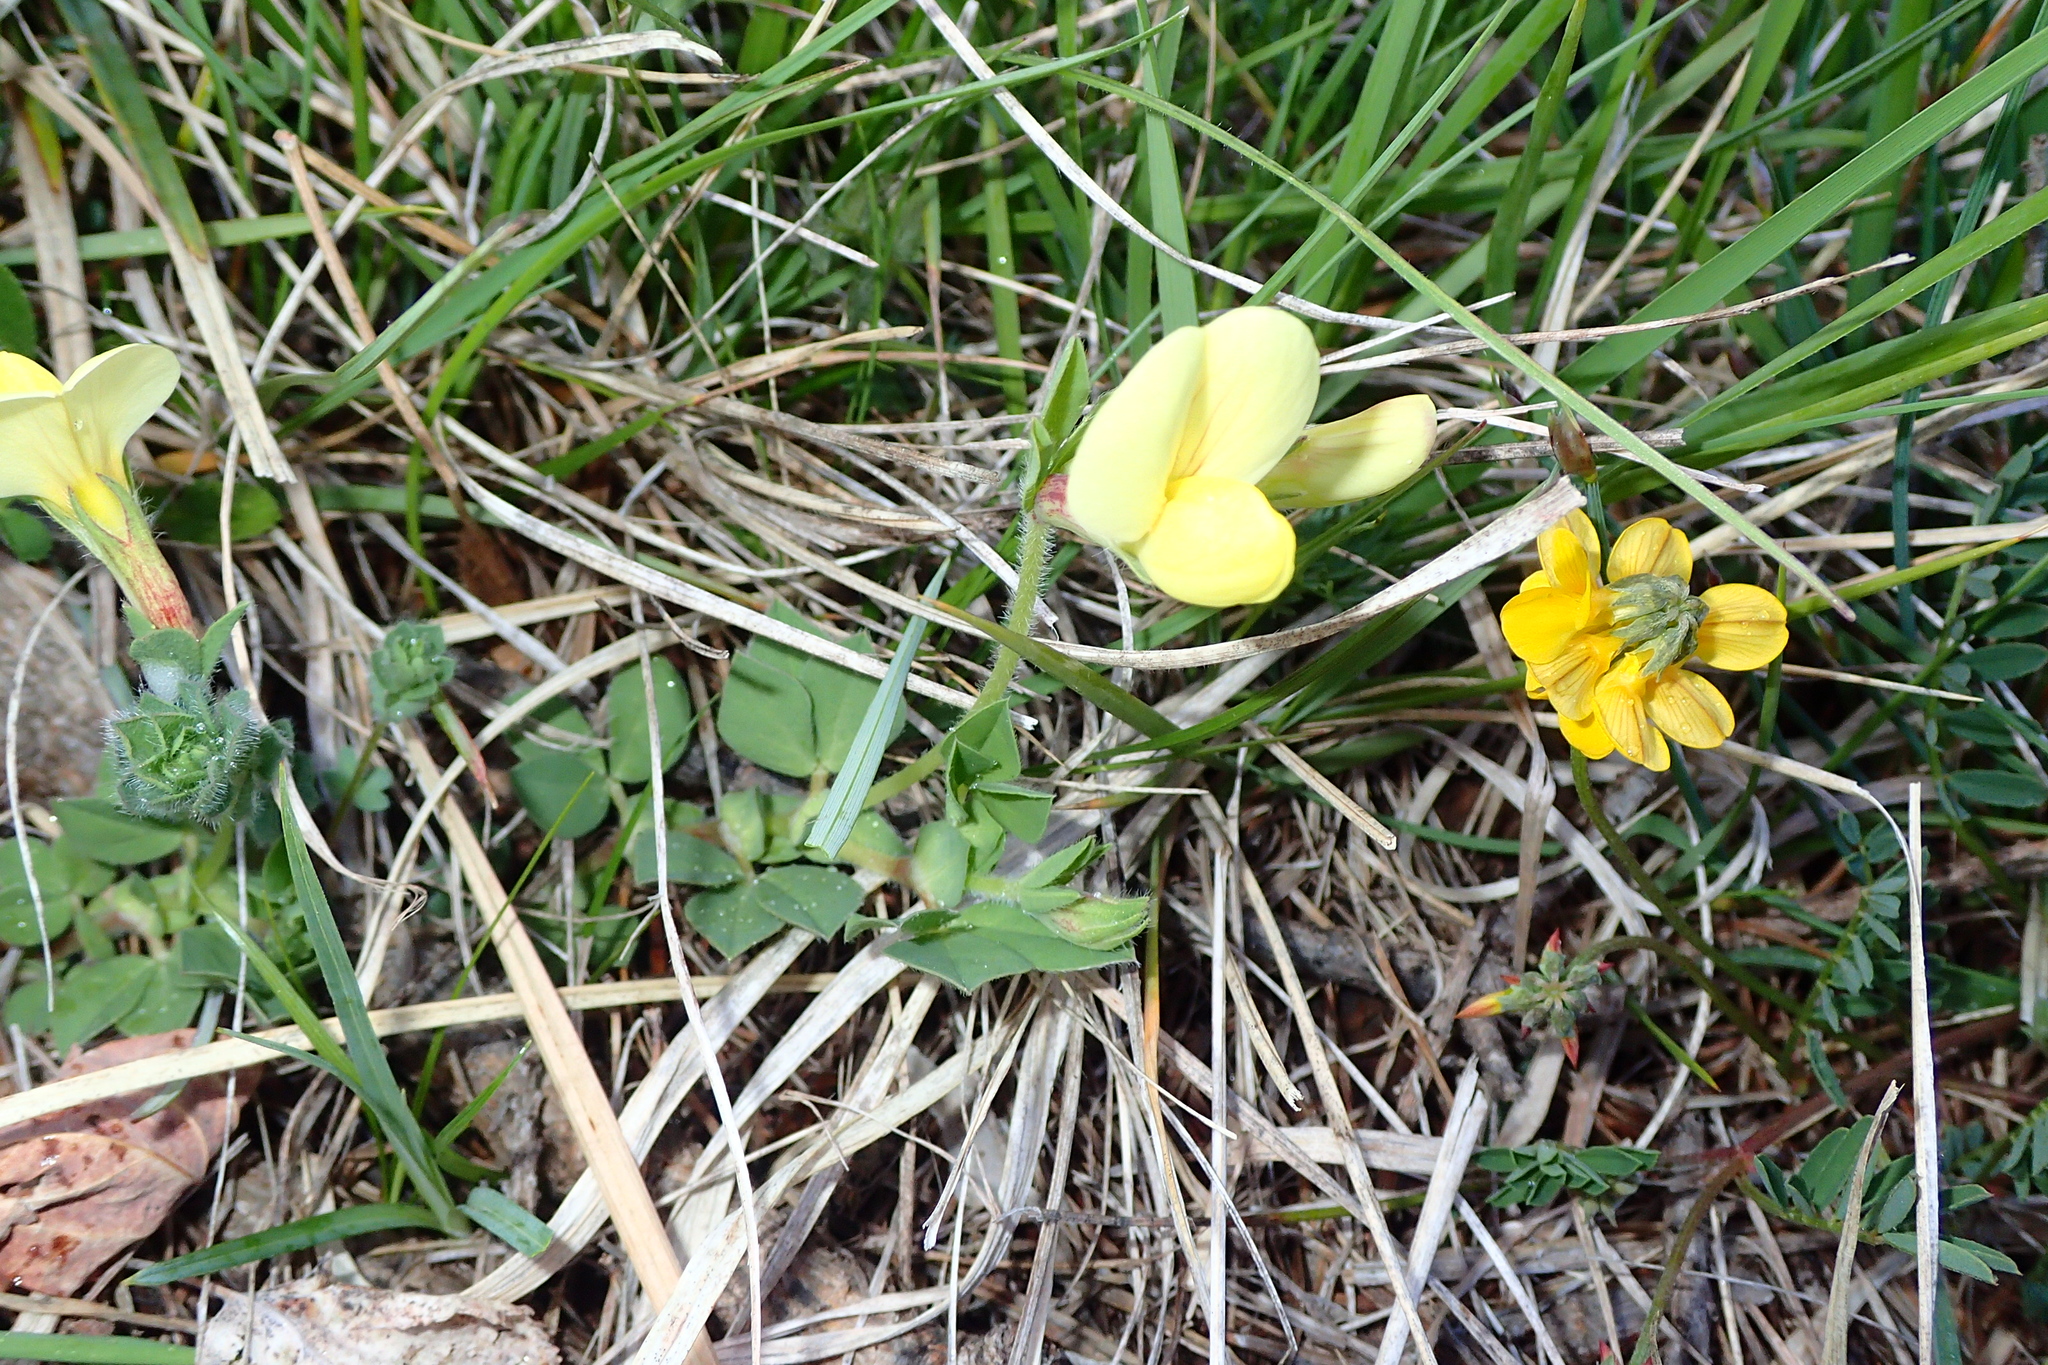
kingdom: Plantae
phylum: Tracheophyta
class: Magnoliopsida
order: Fabales
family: Fabaceae
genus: Lotus
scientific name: Lotus maritimus
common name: Dragon's-teeth
